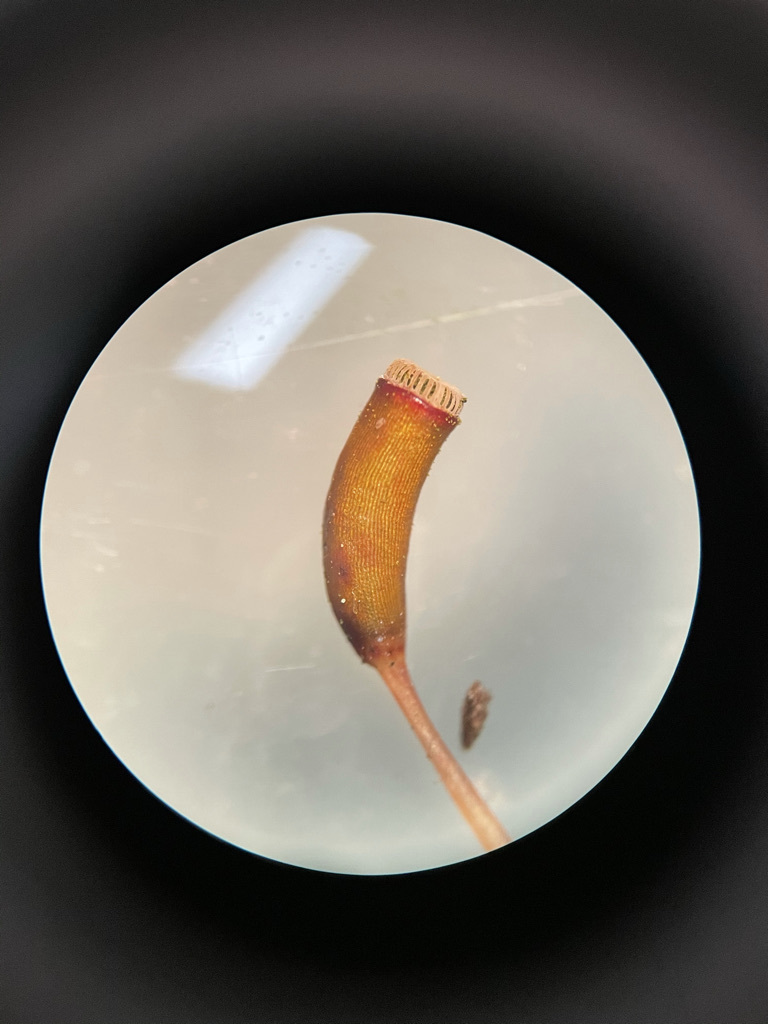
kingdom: Plantae
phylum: Bryophyta
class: Polytrichopsida
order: Polytrichales
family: Polytrichaceae
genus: Atrichum
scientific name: Atrichum undulatum
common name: Common smoothcap
